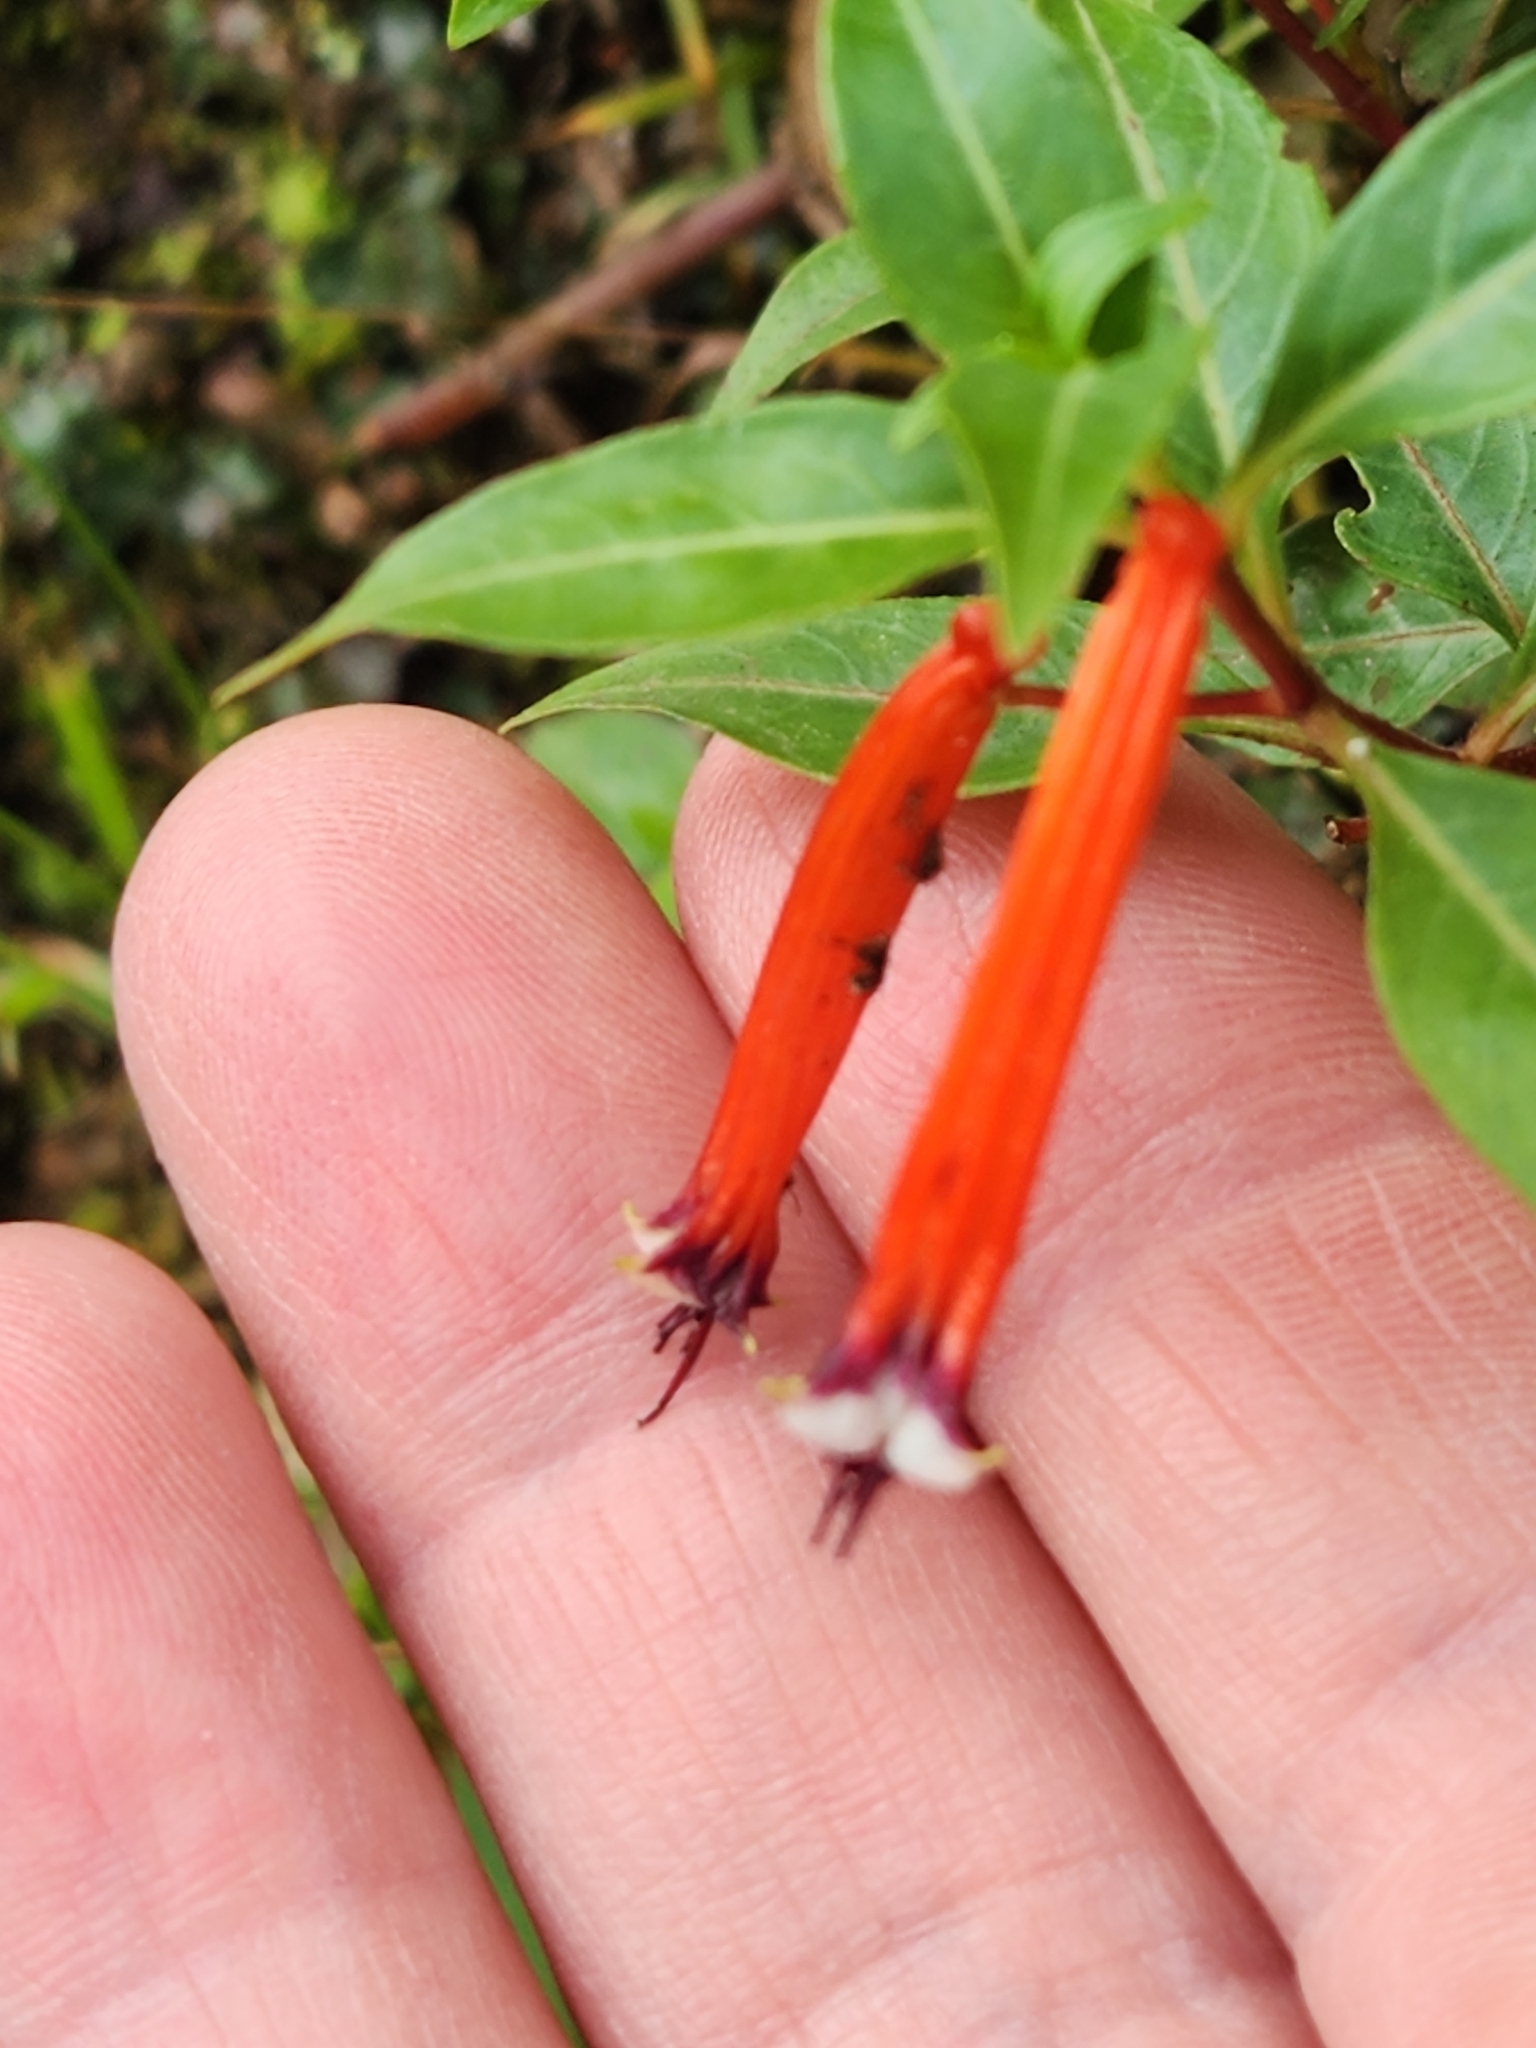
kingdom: Plantae
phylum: Tracheophyta
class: Magnoliopsida
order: Myrtales
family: Lythraceae
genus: Cuphea
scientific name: Cuphea ignea
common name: Cigar flower
